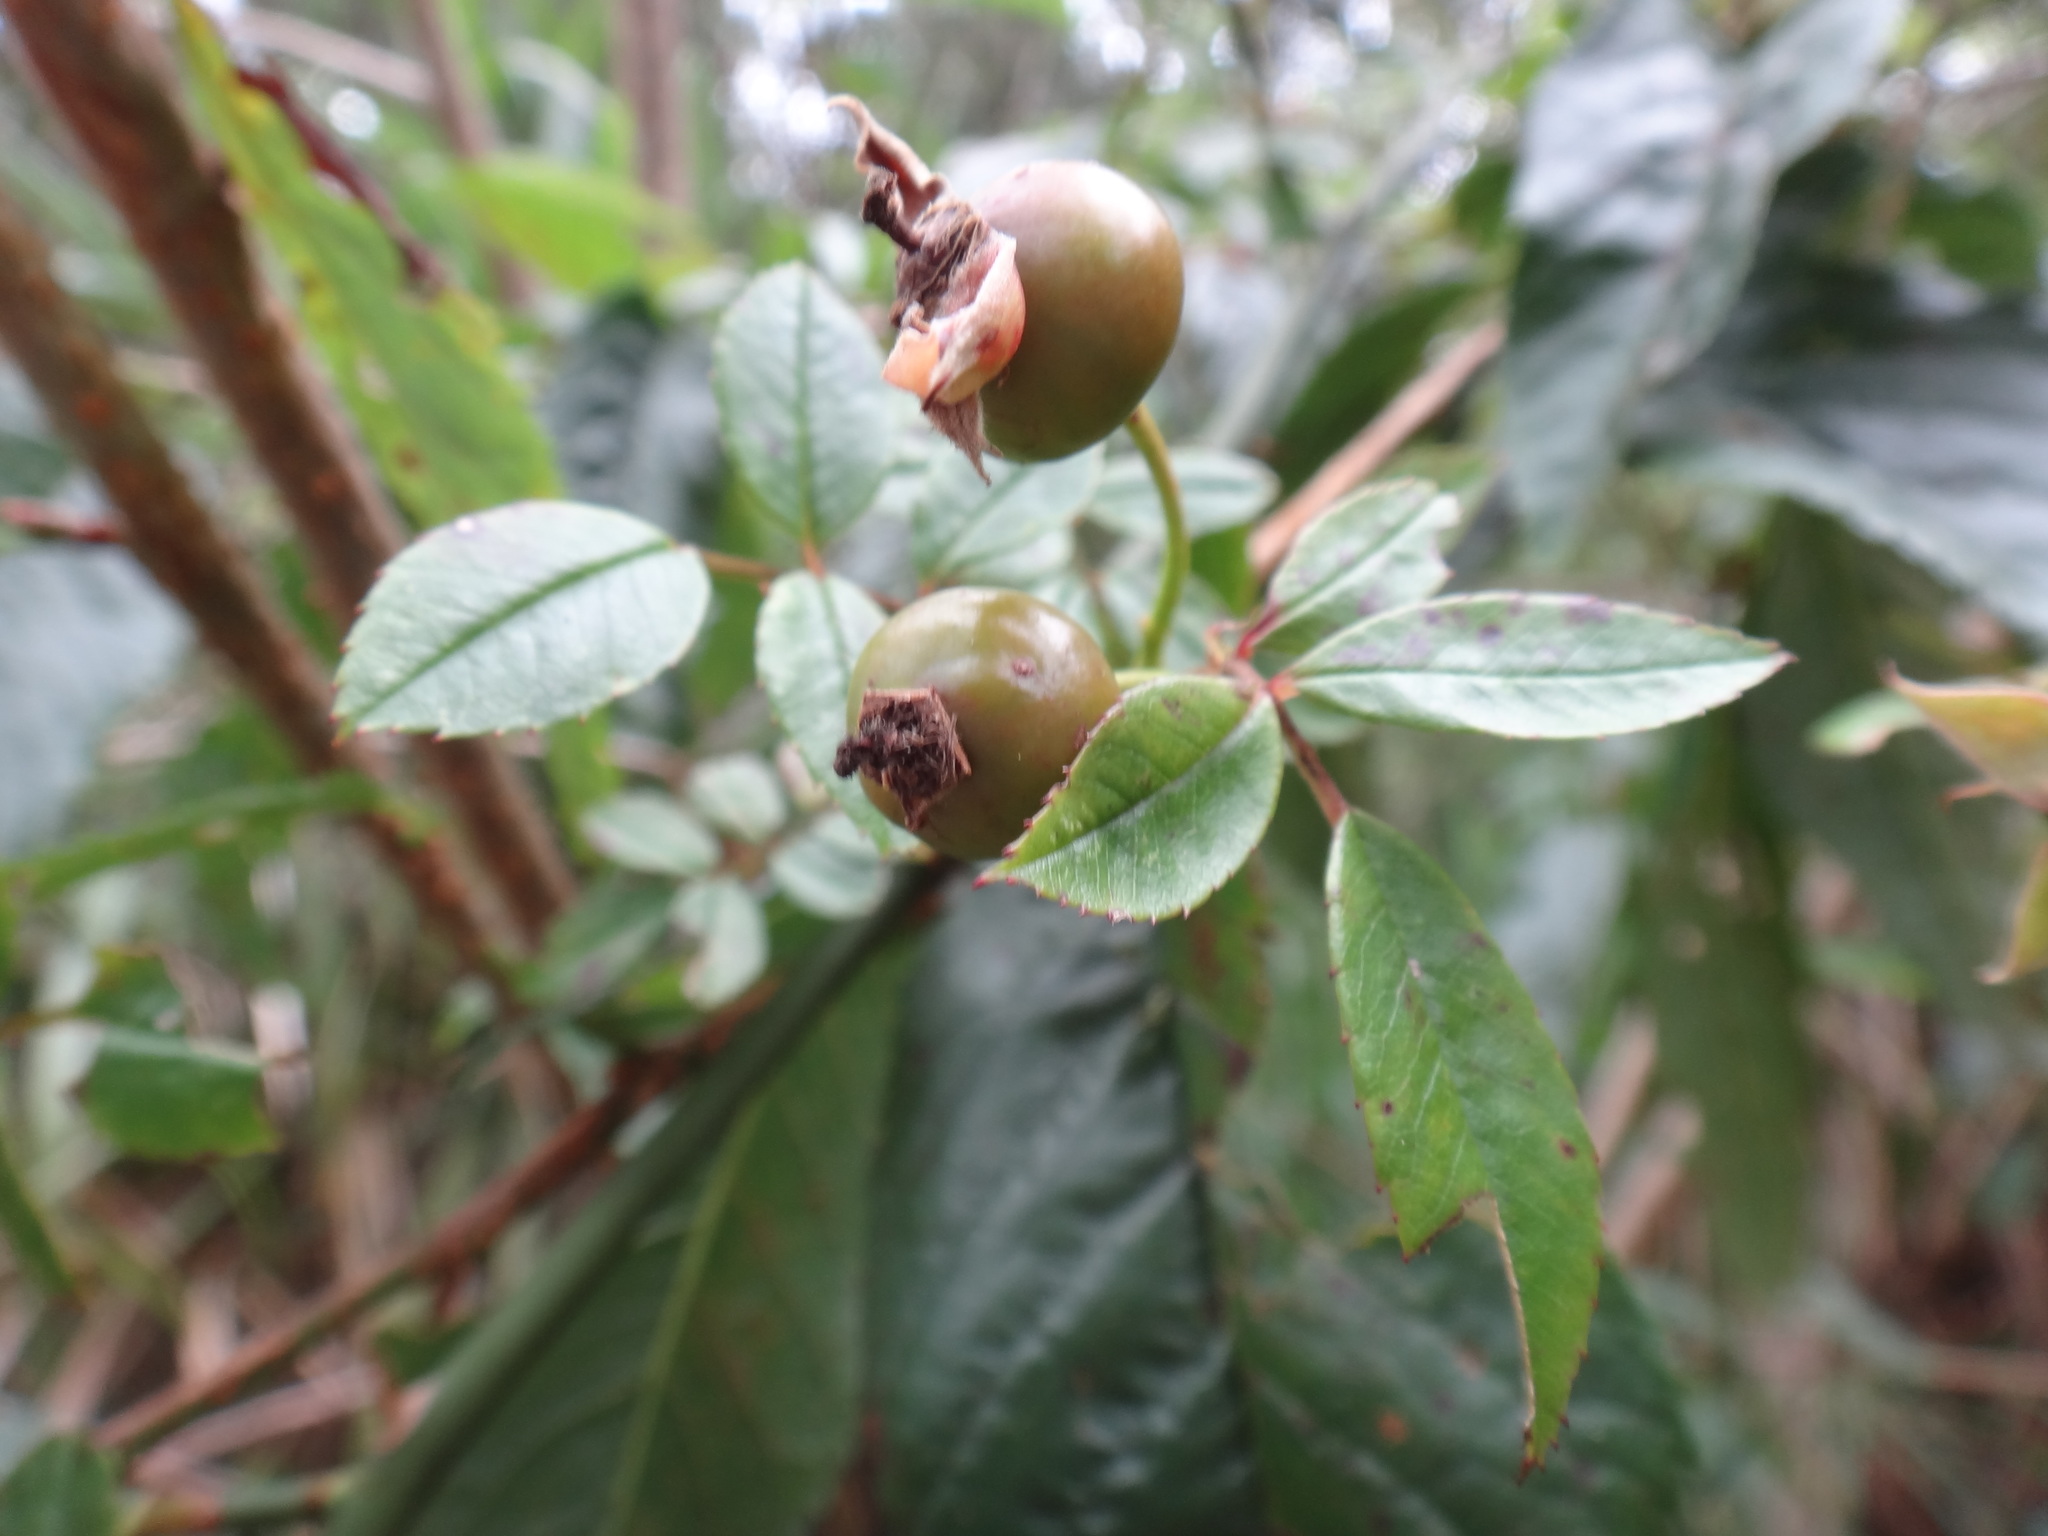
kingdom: Plantae
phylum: Tracheophyta
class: Magnoliopsida
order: Rosales
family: Rosaceae
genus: Rosa
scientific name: Rosa transmorrisonensis
